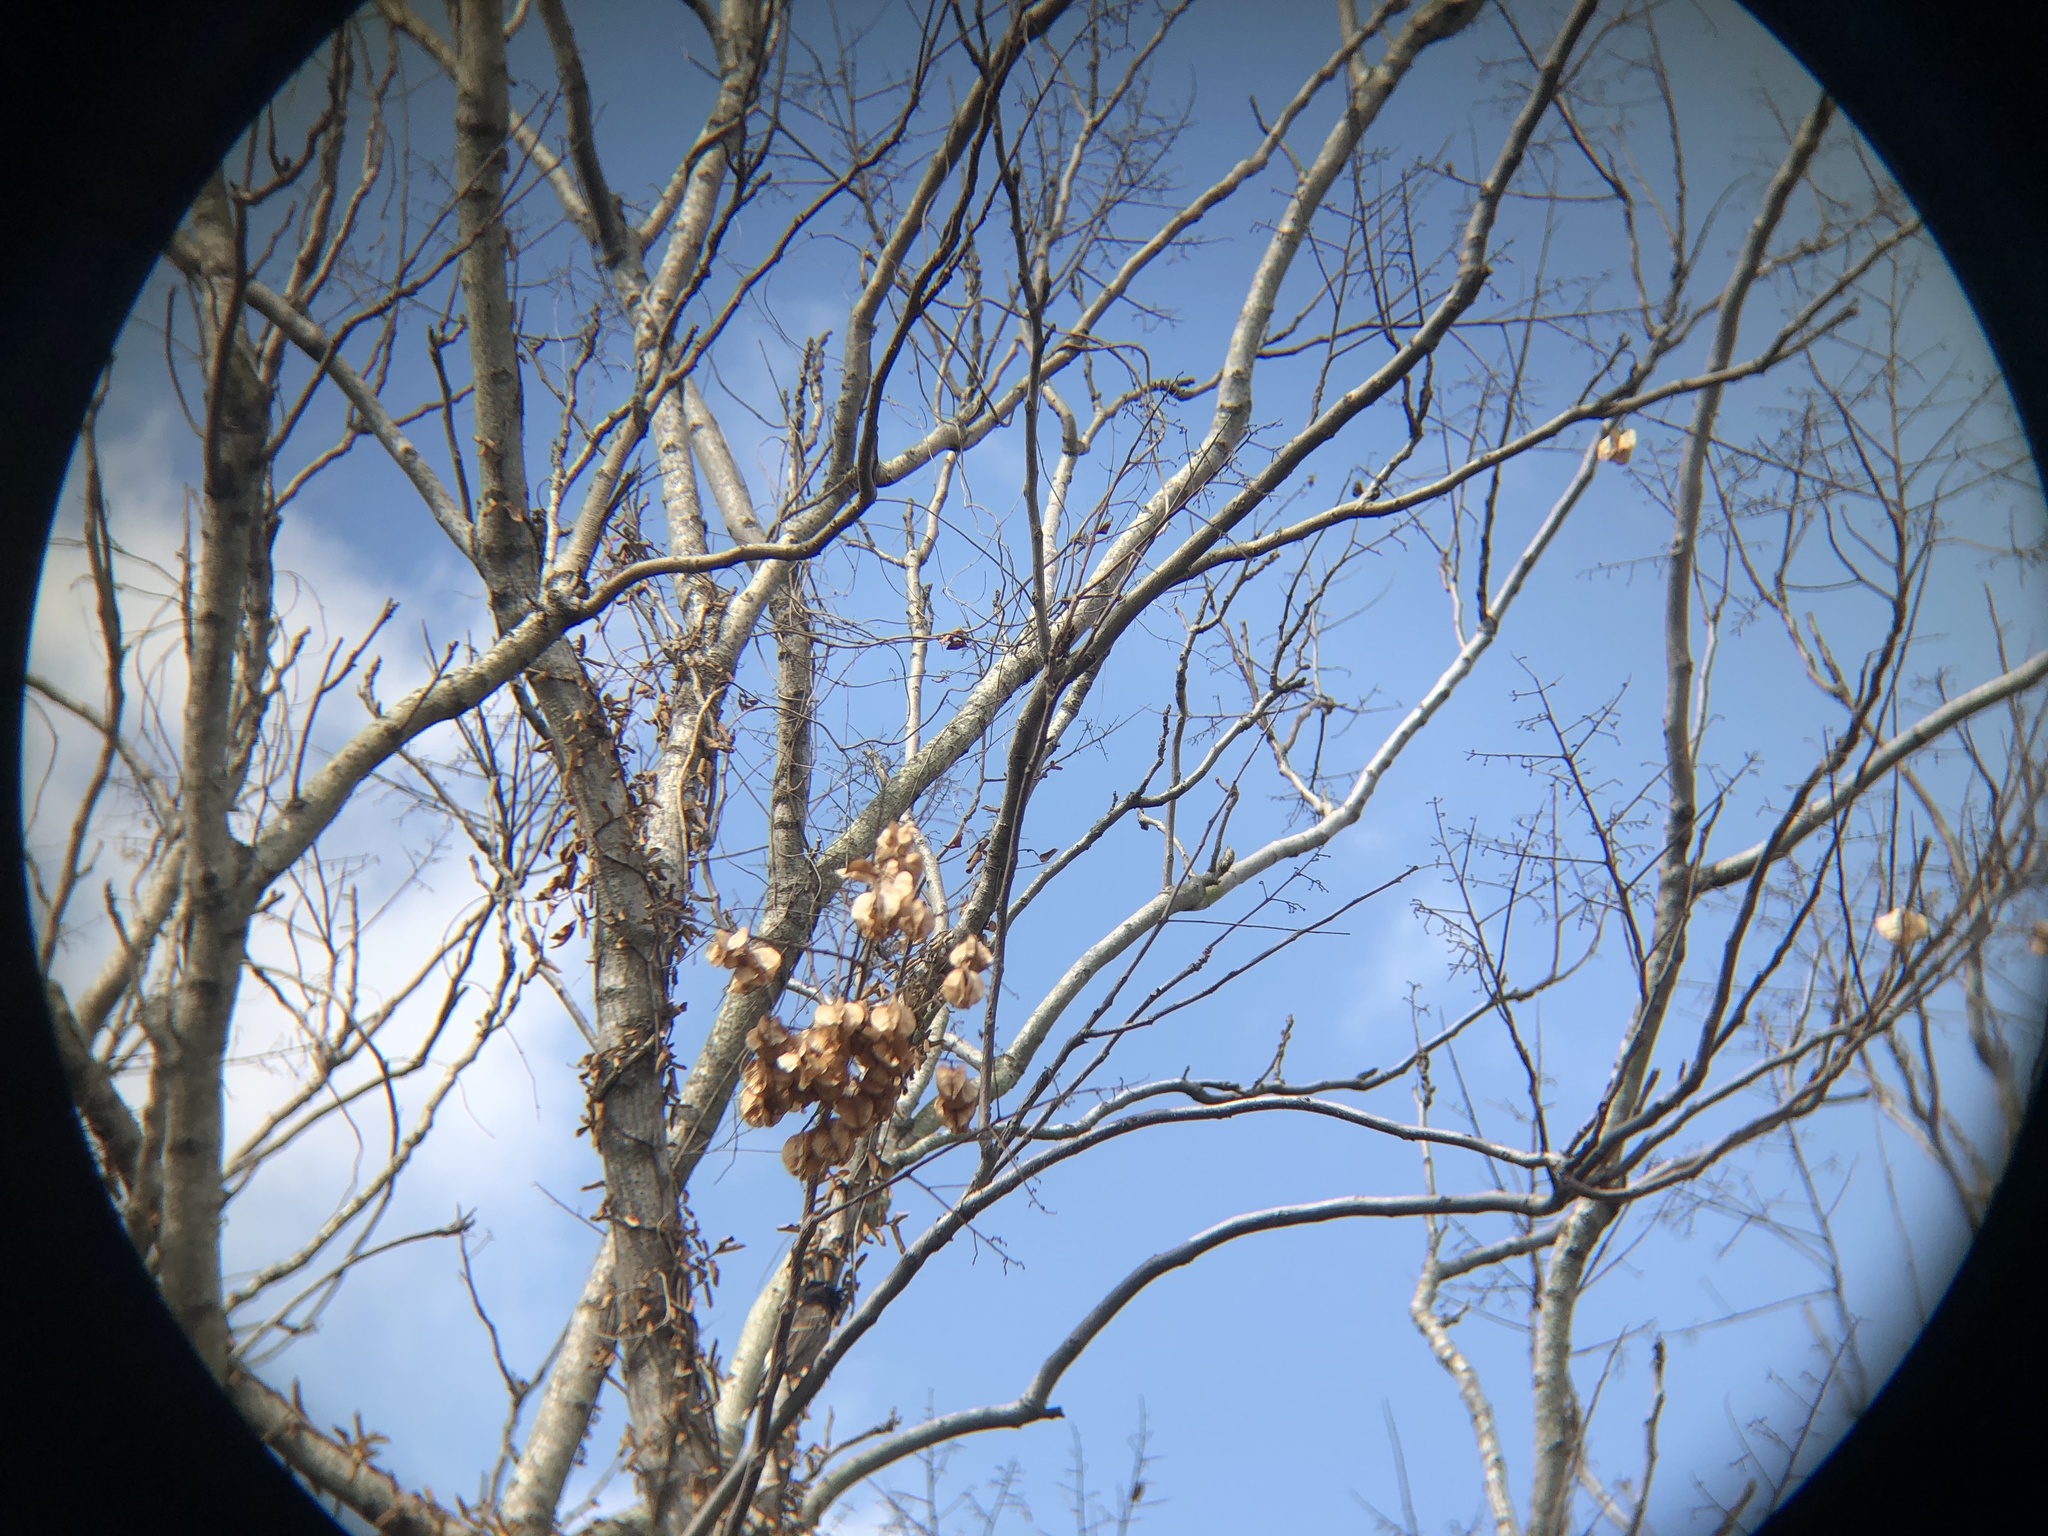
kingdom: Animalia
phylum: Chordata
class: Aves
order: Passeriformes
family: Pycnonotidae
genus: Pycnonotus
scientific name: Pycnonotus cafer
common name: Red-vented bulbul
